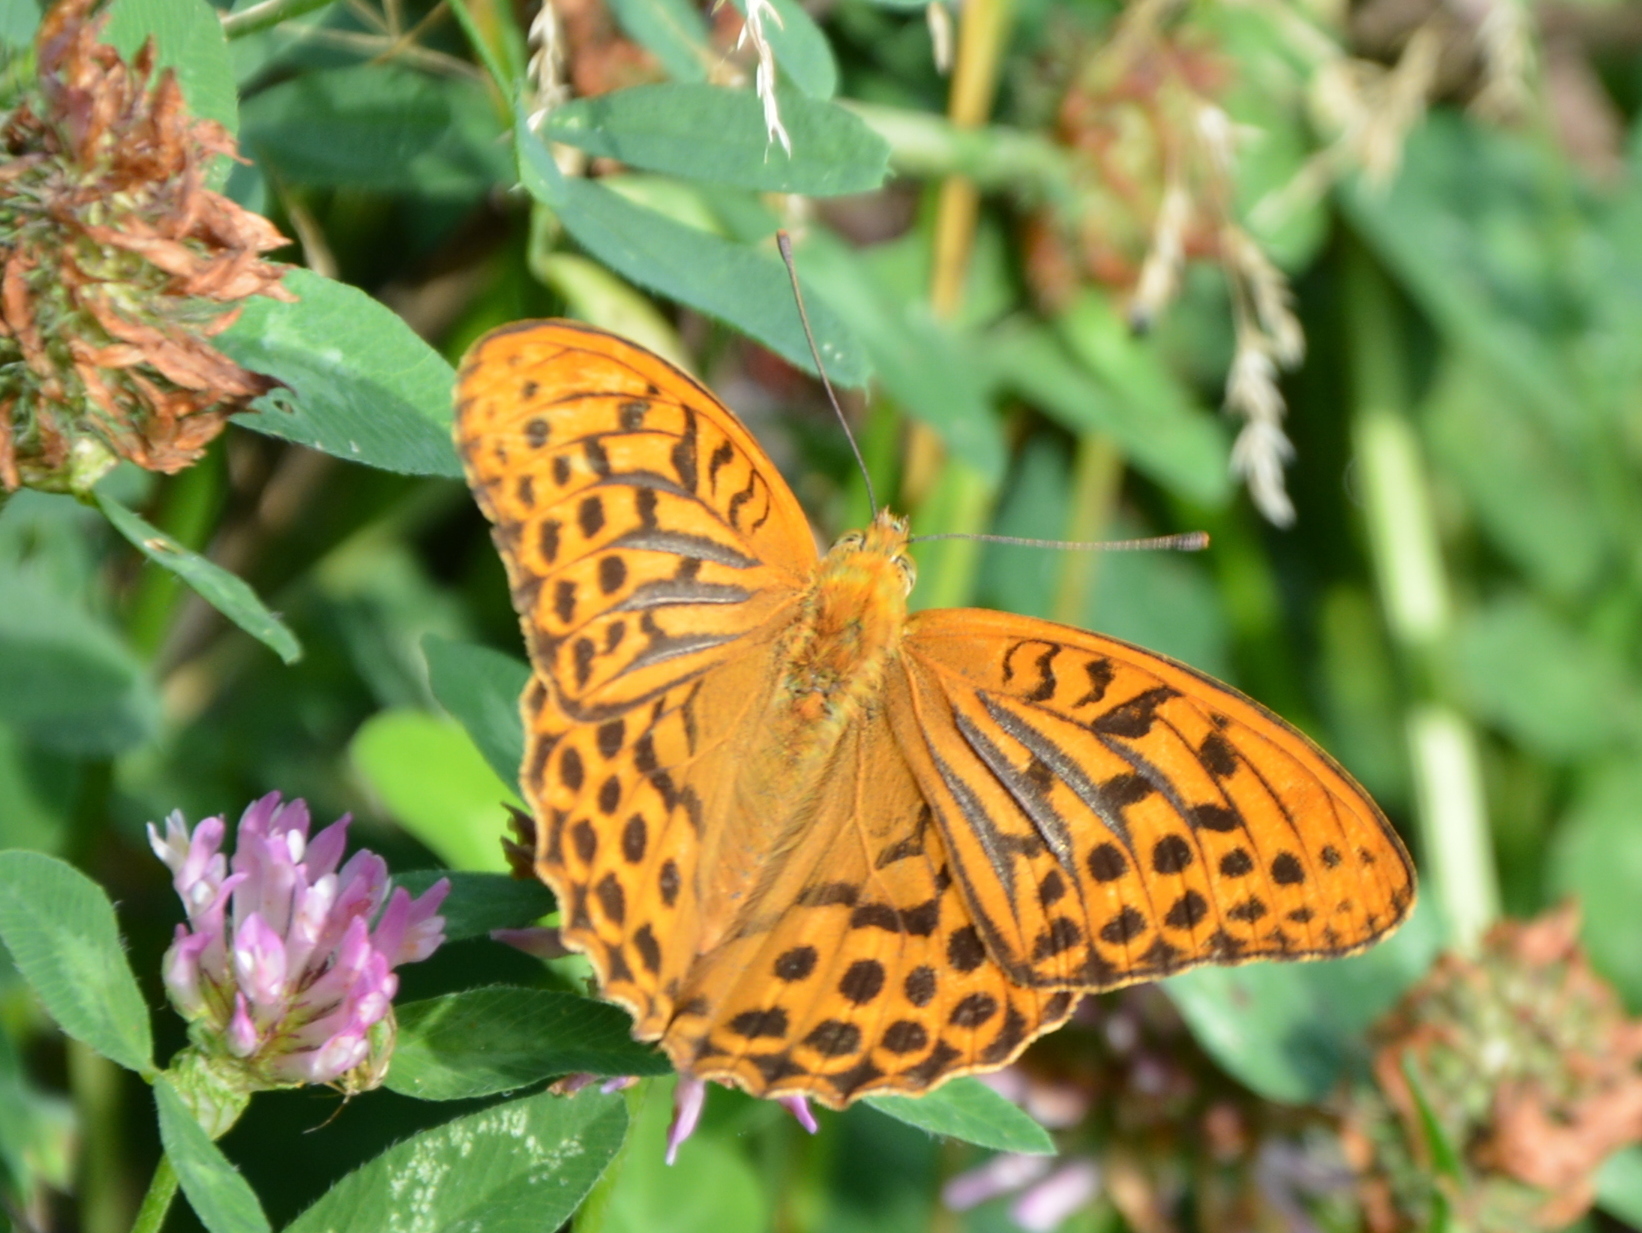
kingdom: Animalia
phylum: Arthropoda
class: Insecta
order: Lepidoptera
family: Nymphalidae
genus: Argynnis
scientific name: Argynnis paphia
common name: Silver-washed fritillary
